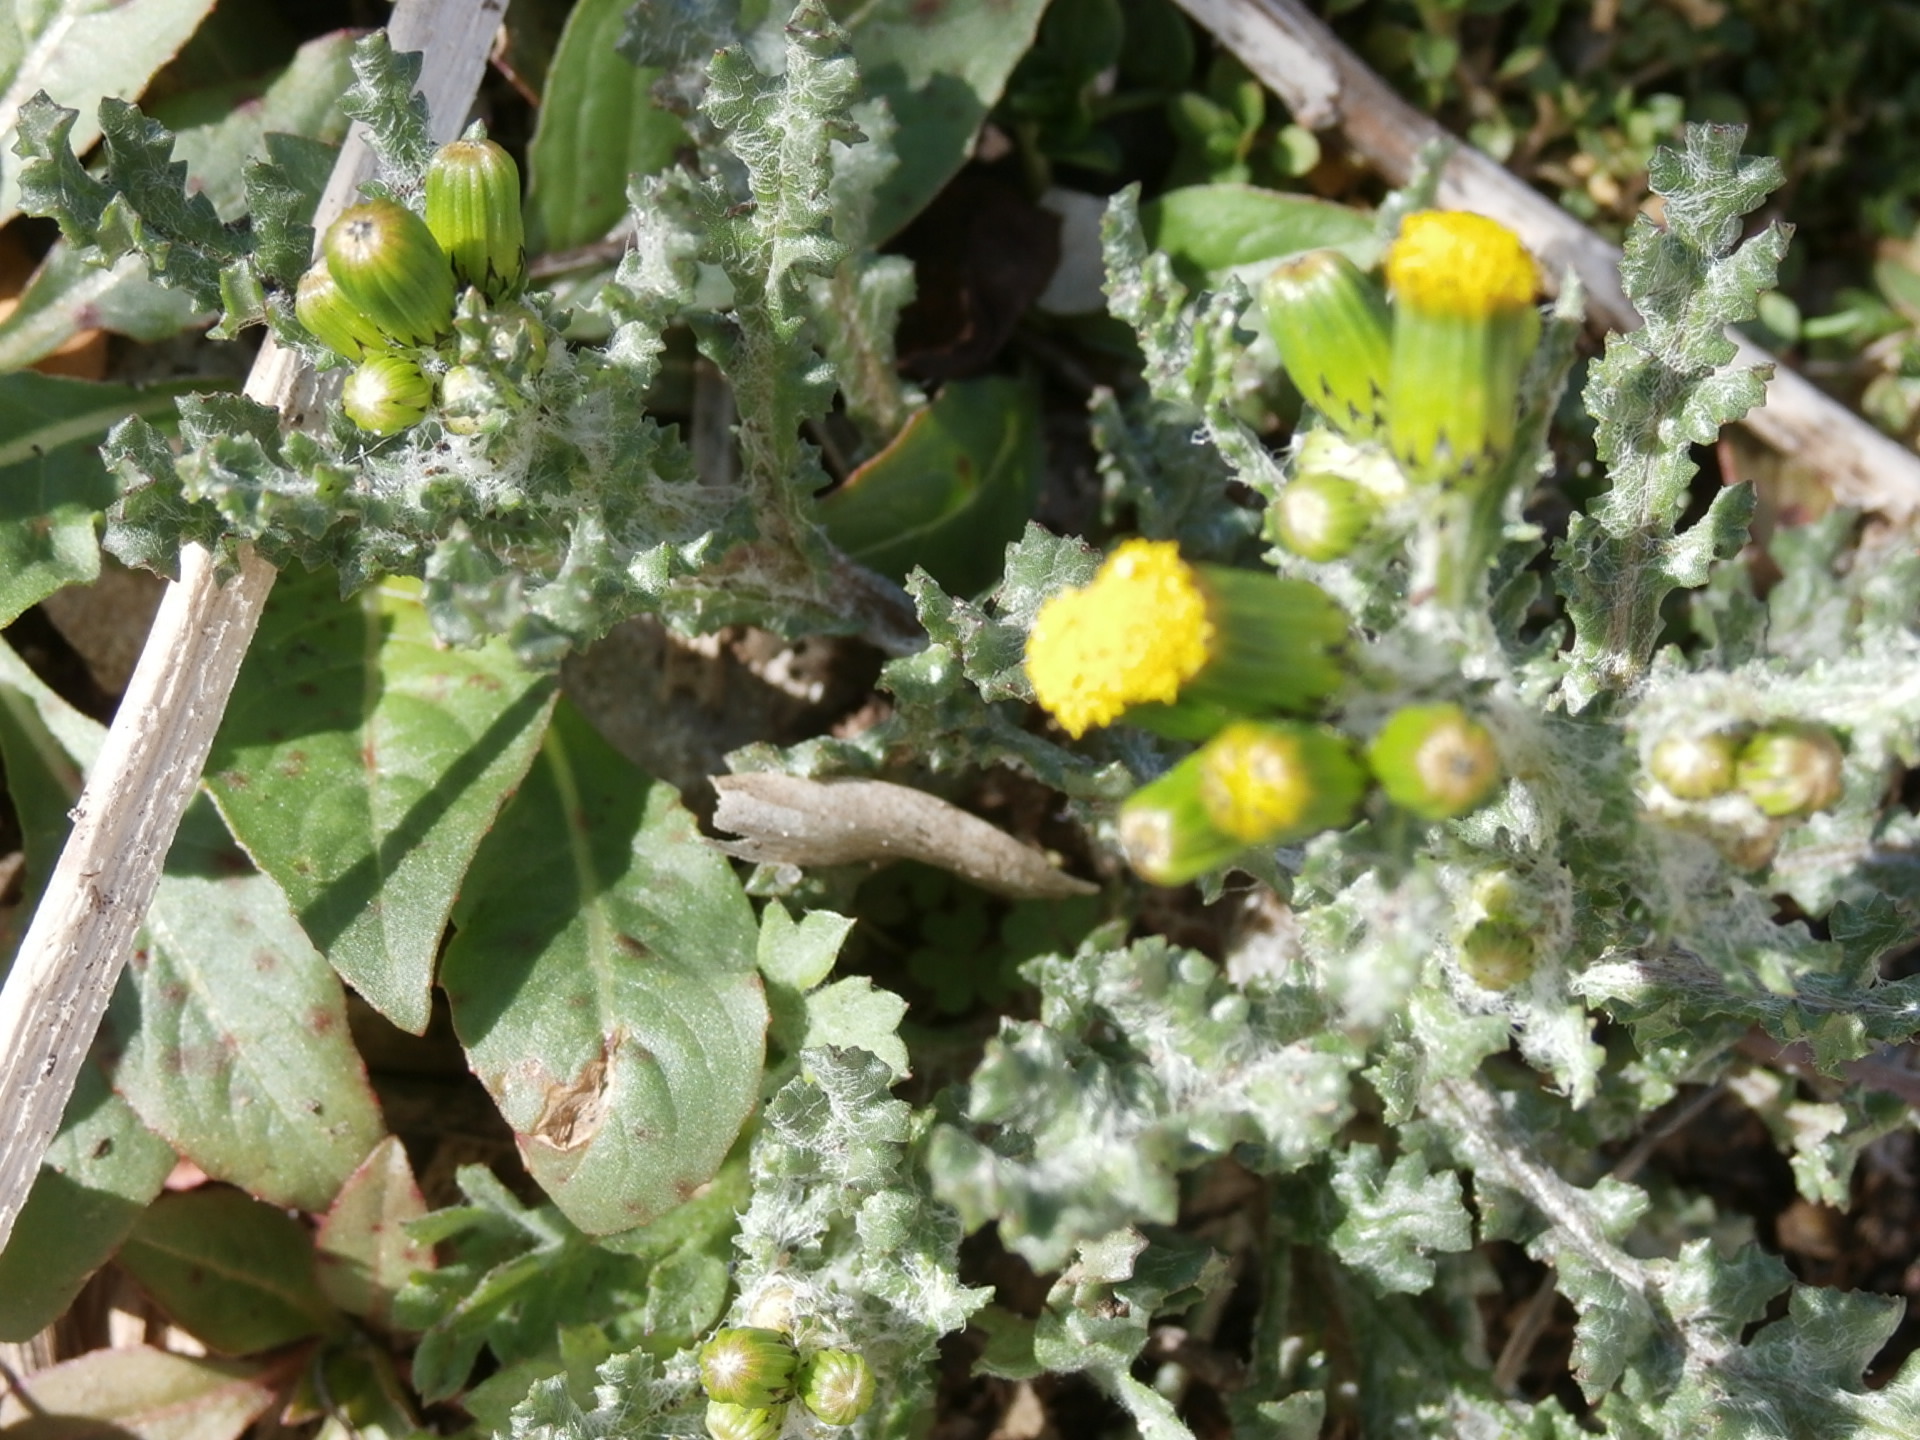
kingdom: Plantae
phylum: Tracheophyta
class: Magnoliopsida
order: Asterales
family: Asteraceae
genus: Senecio
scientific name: Senecio vulgaris
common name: Old-man-in-the-spring
